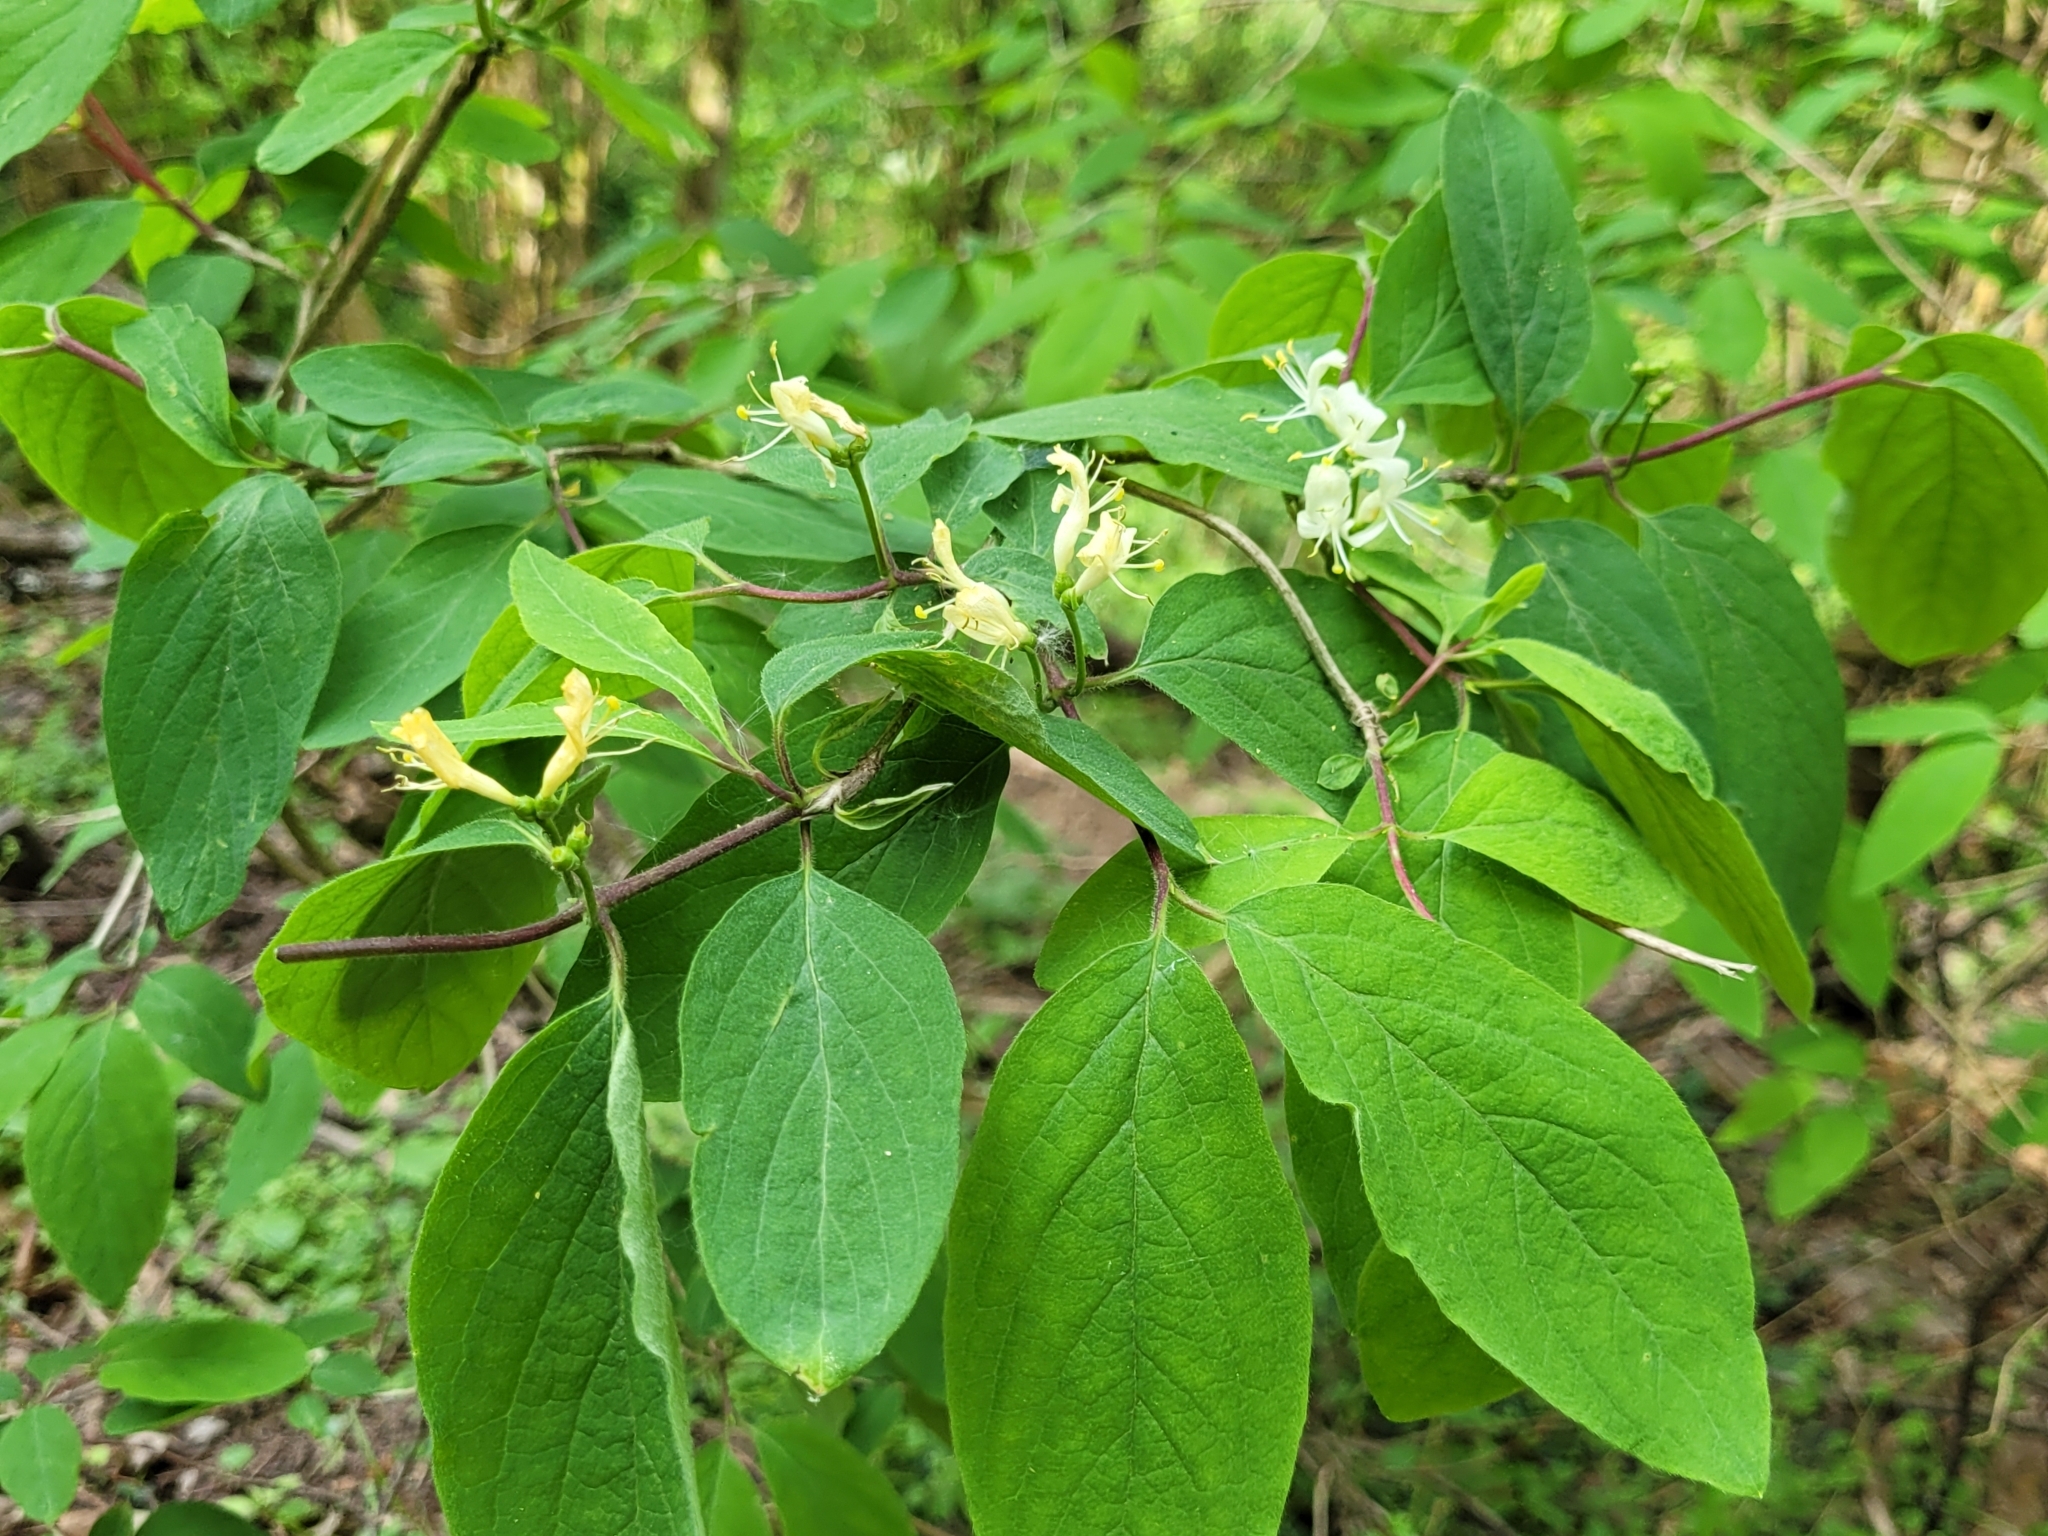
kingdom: Plantae
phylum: Tracheophyta
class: Magnoliopsida
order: Dipsacales
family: Caprifoliaceae
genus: Lonicera
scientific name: Lonicera xylosteum
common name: Fly honeysuckle
